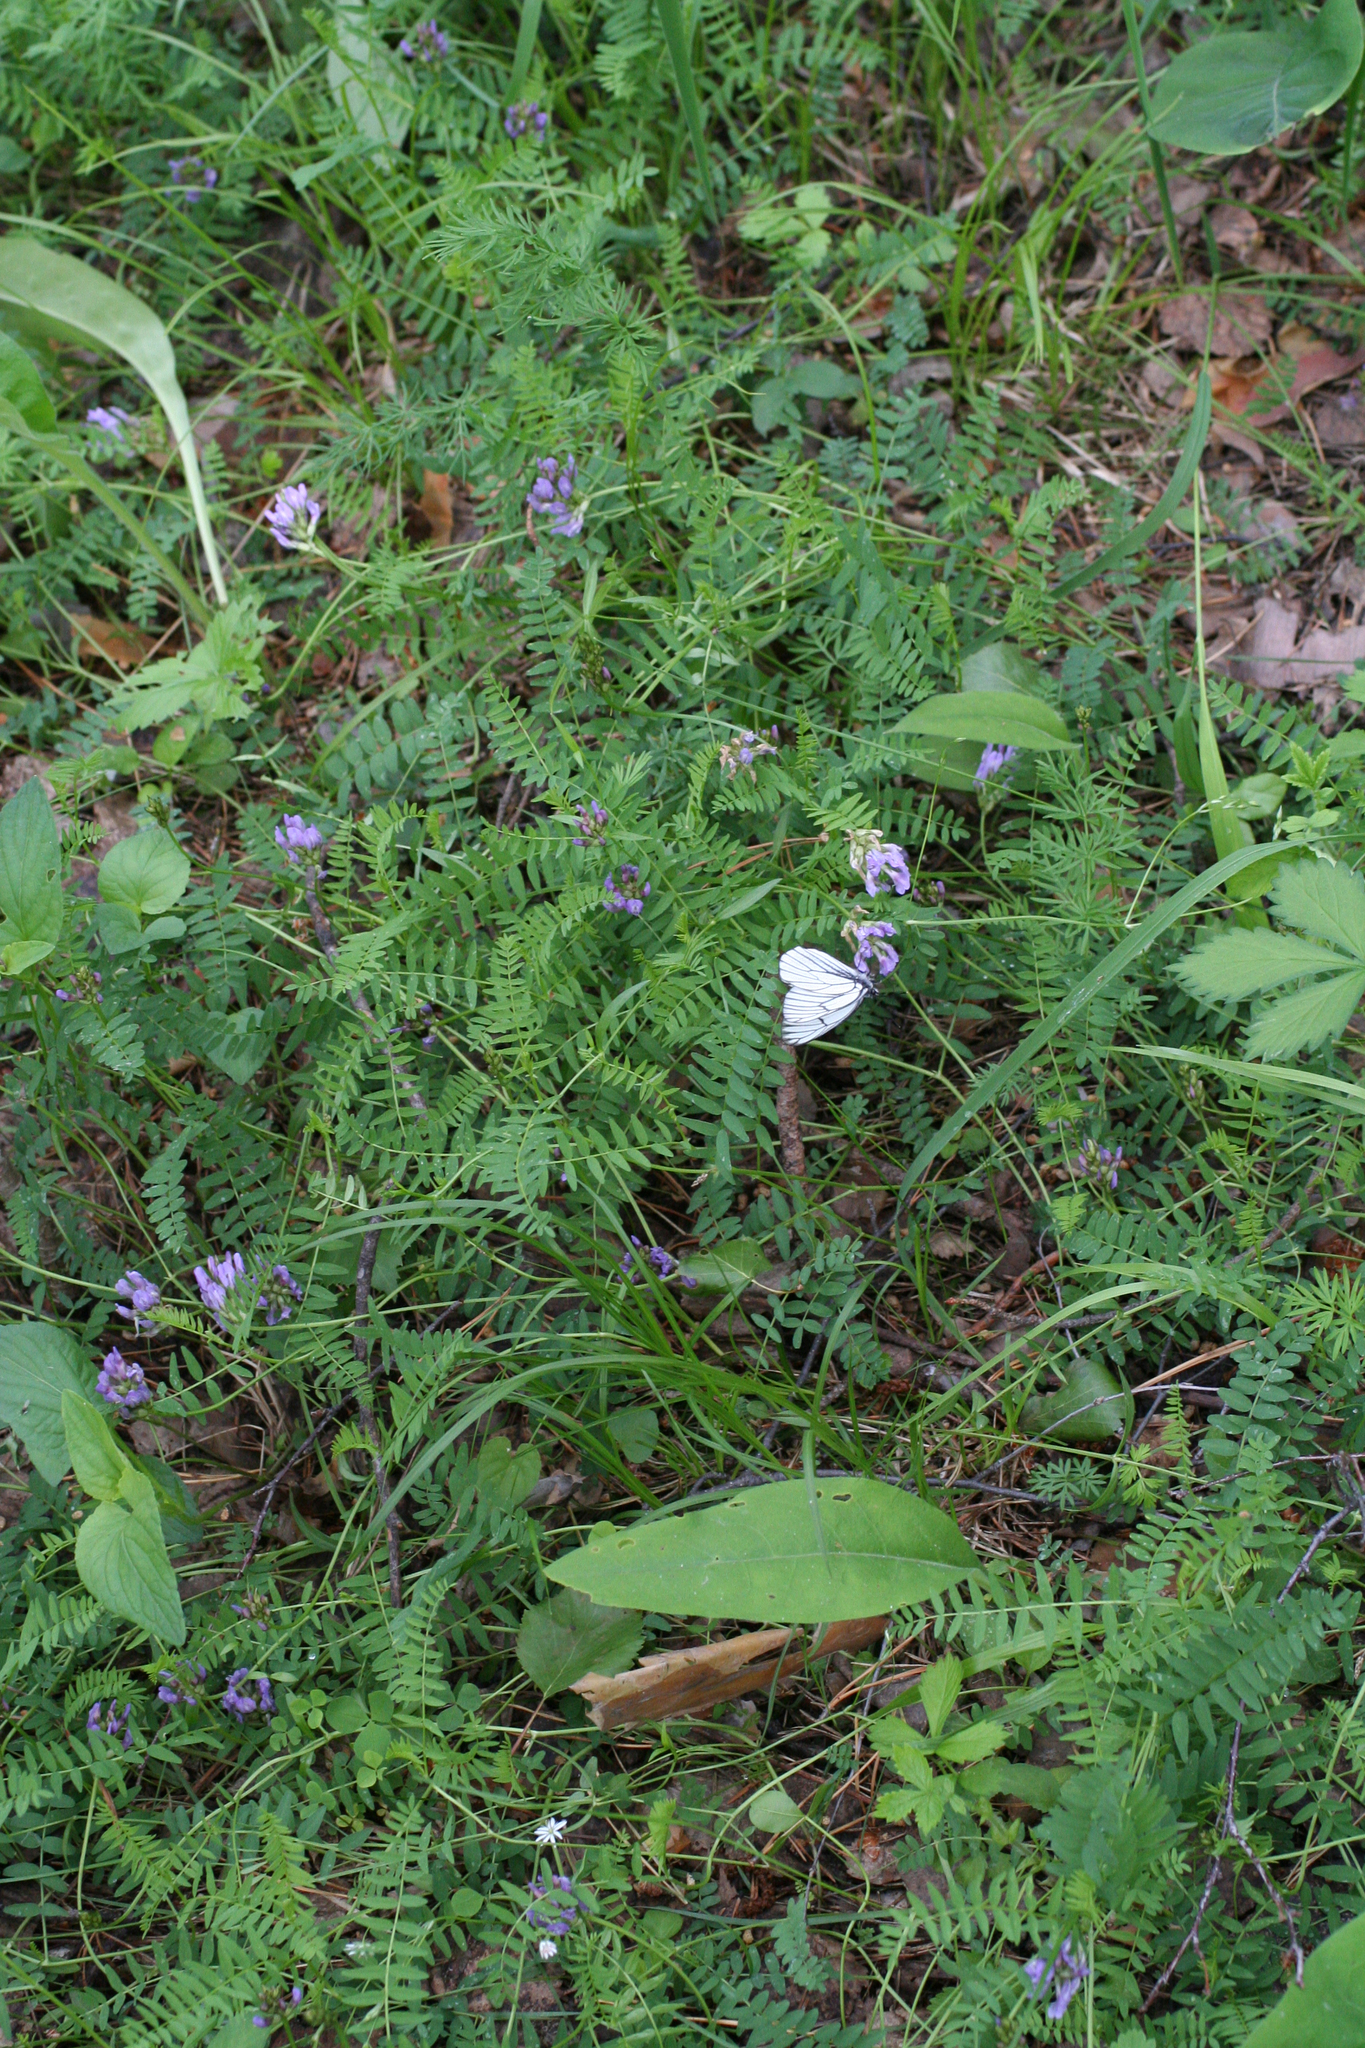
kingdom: Plantae
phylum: Tracheophyta
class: Magnoliopsida
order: Fabales
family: Fabaceae
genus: Astragalus
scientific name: Astragalus danicus
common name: Purple milk-vetch
